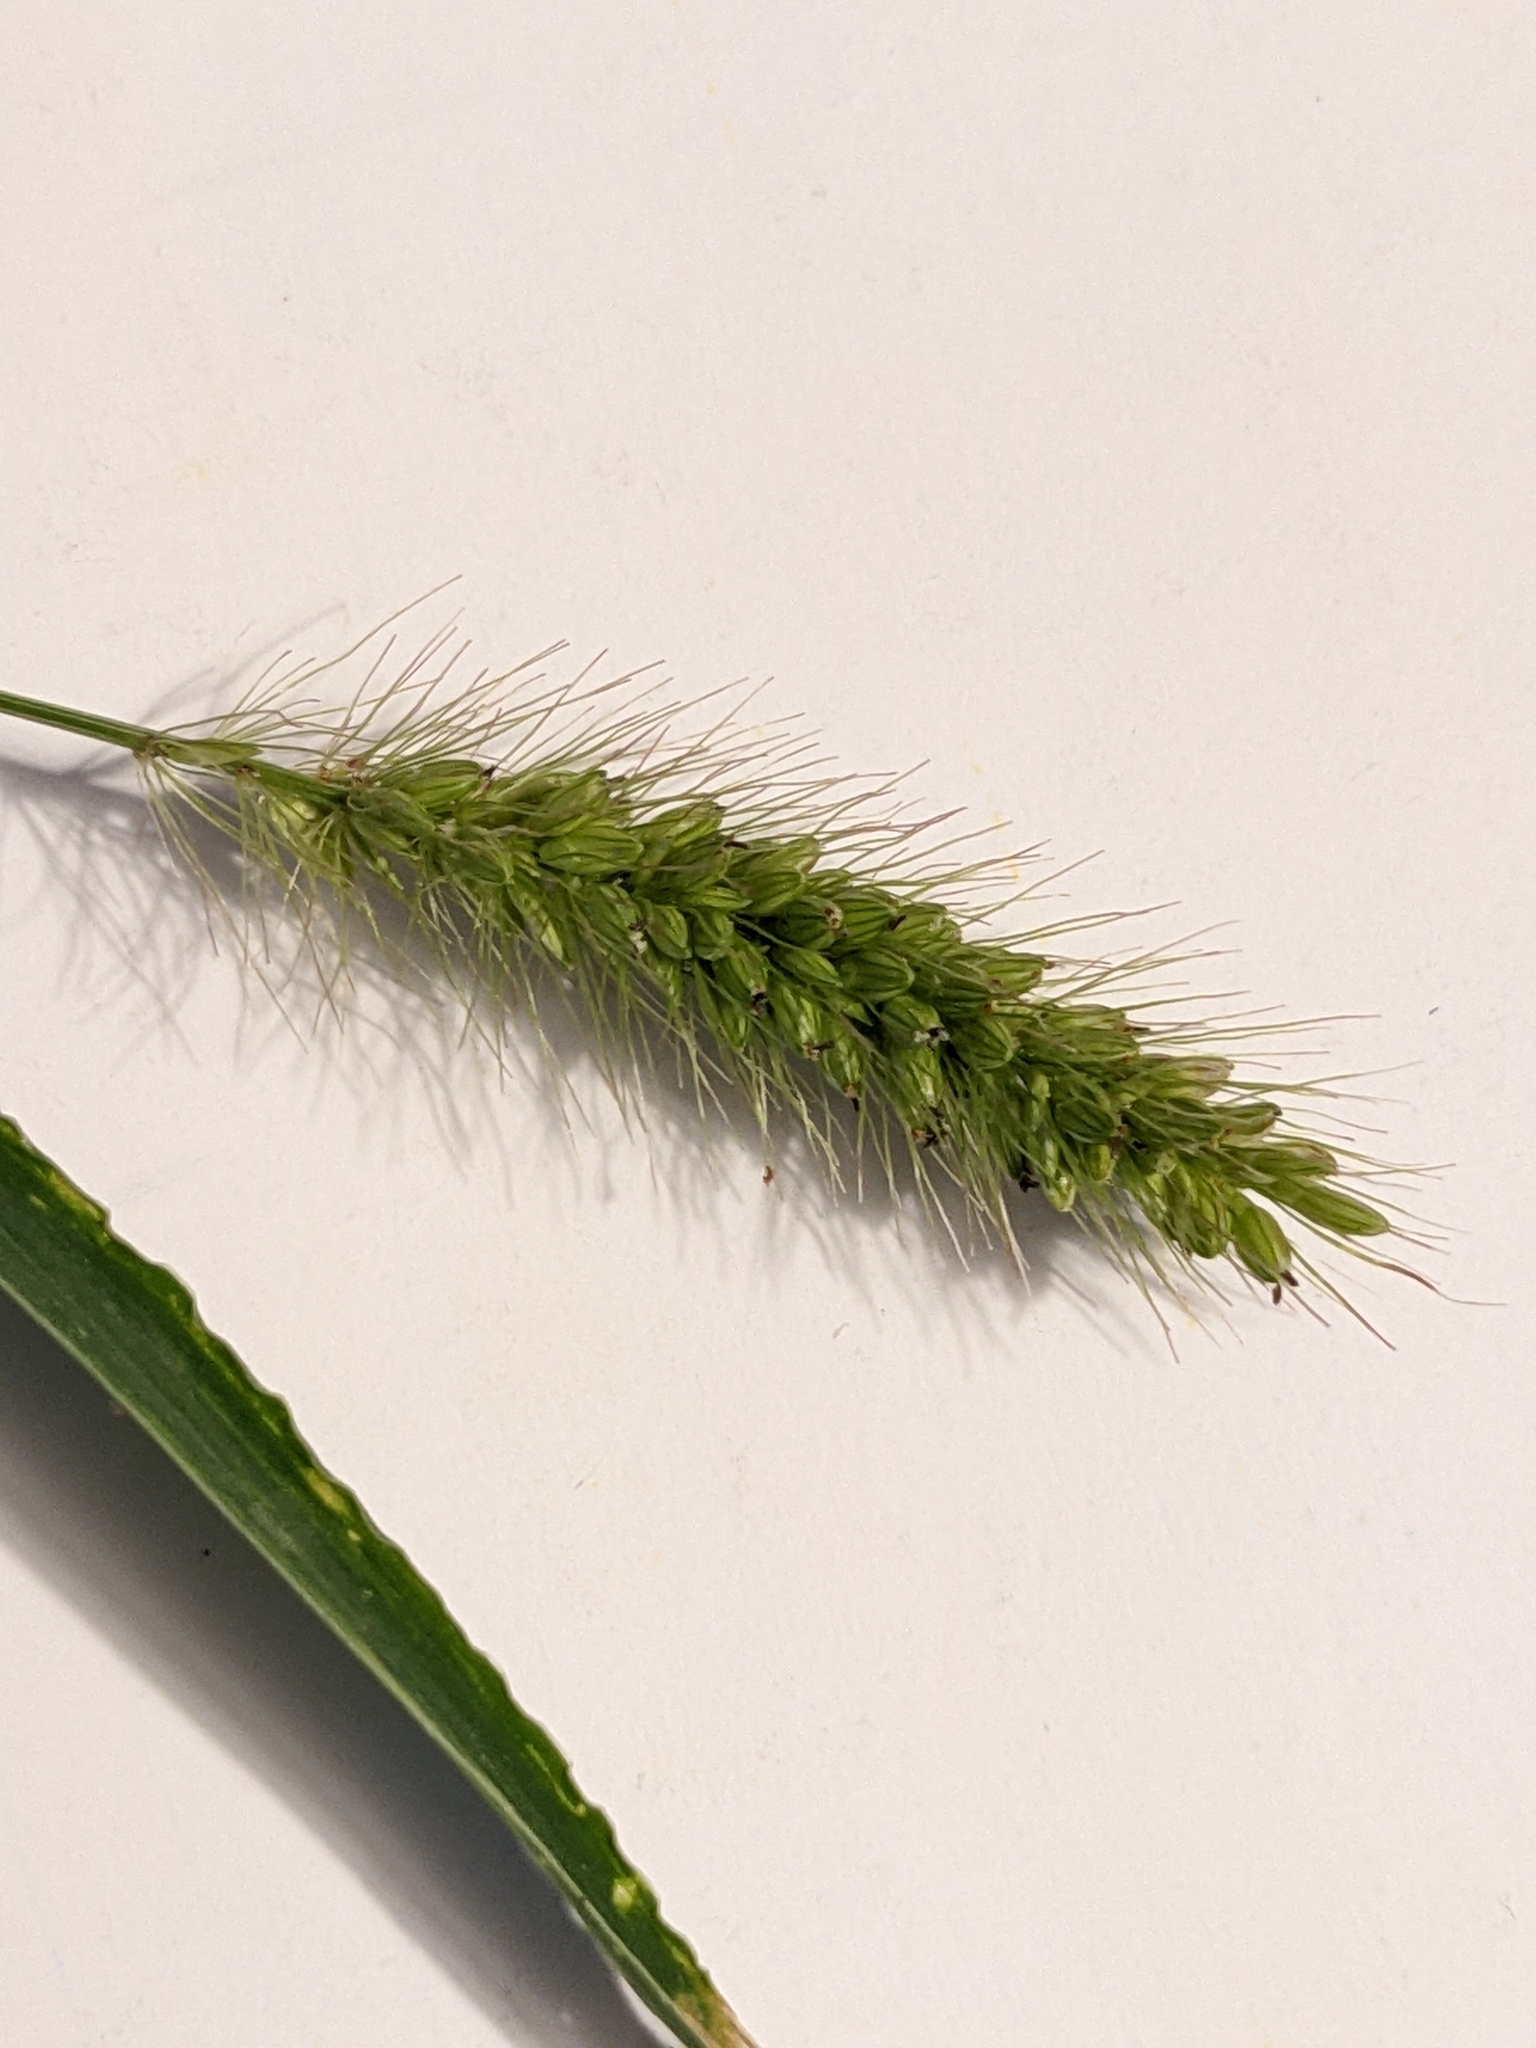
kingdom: Plantae
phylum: Tracheophyta
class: Liliopsida
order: Poales
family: Poaceae
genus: Setaria
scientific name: Setaria viridis
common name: Green bristlegrass
